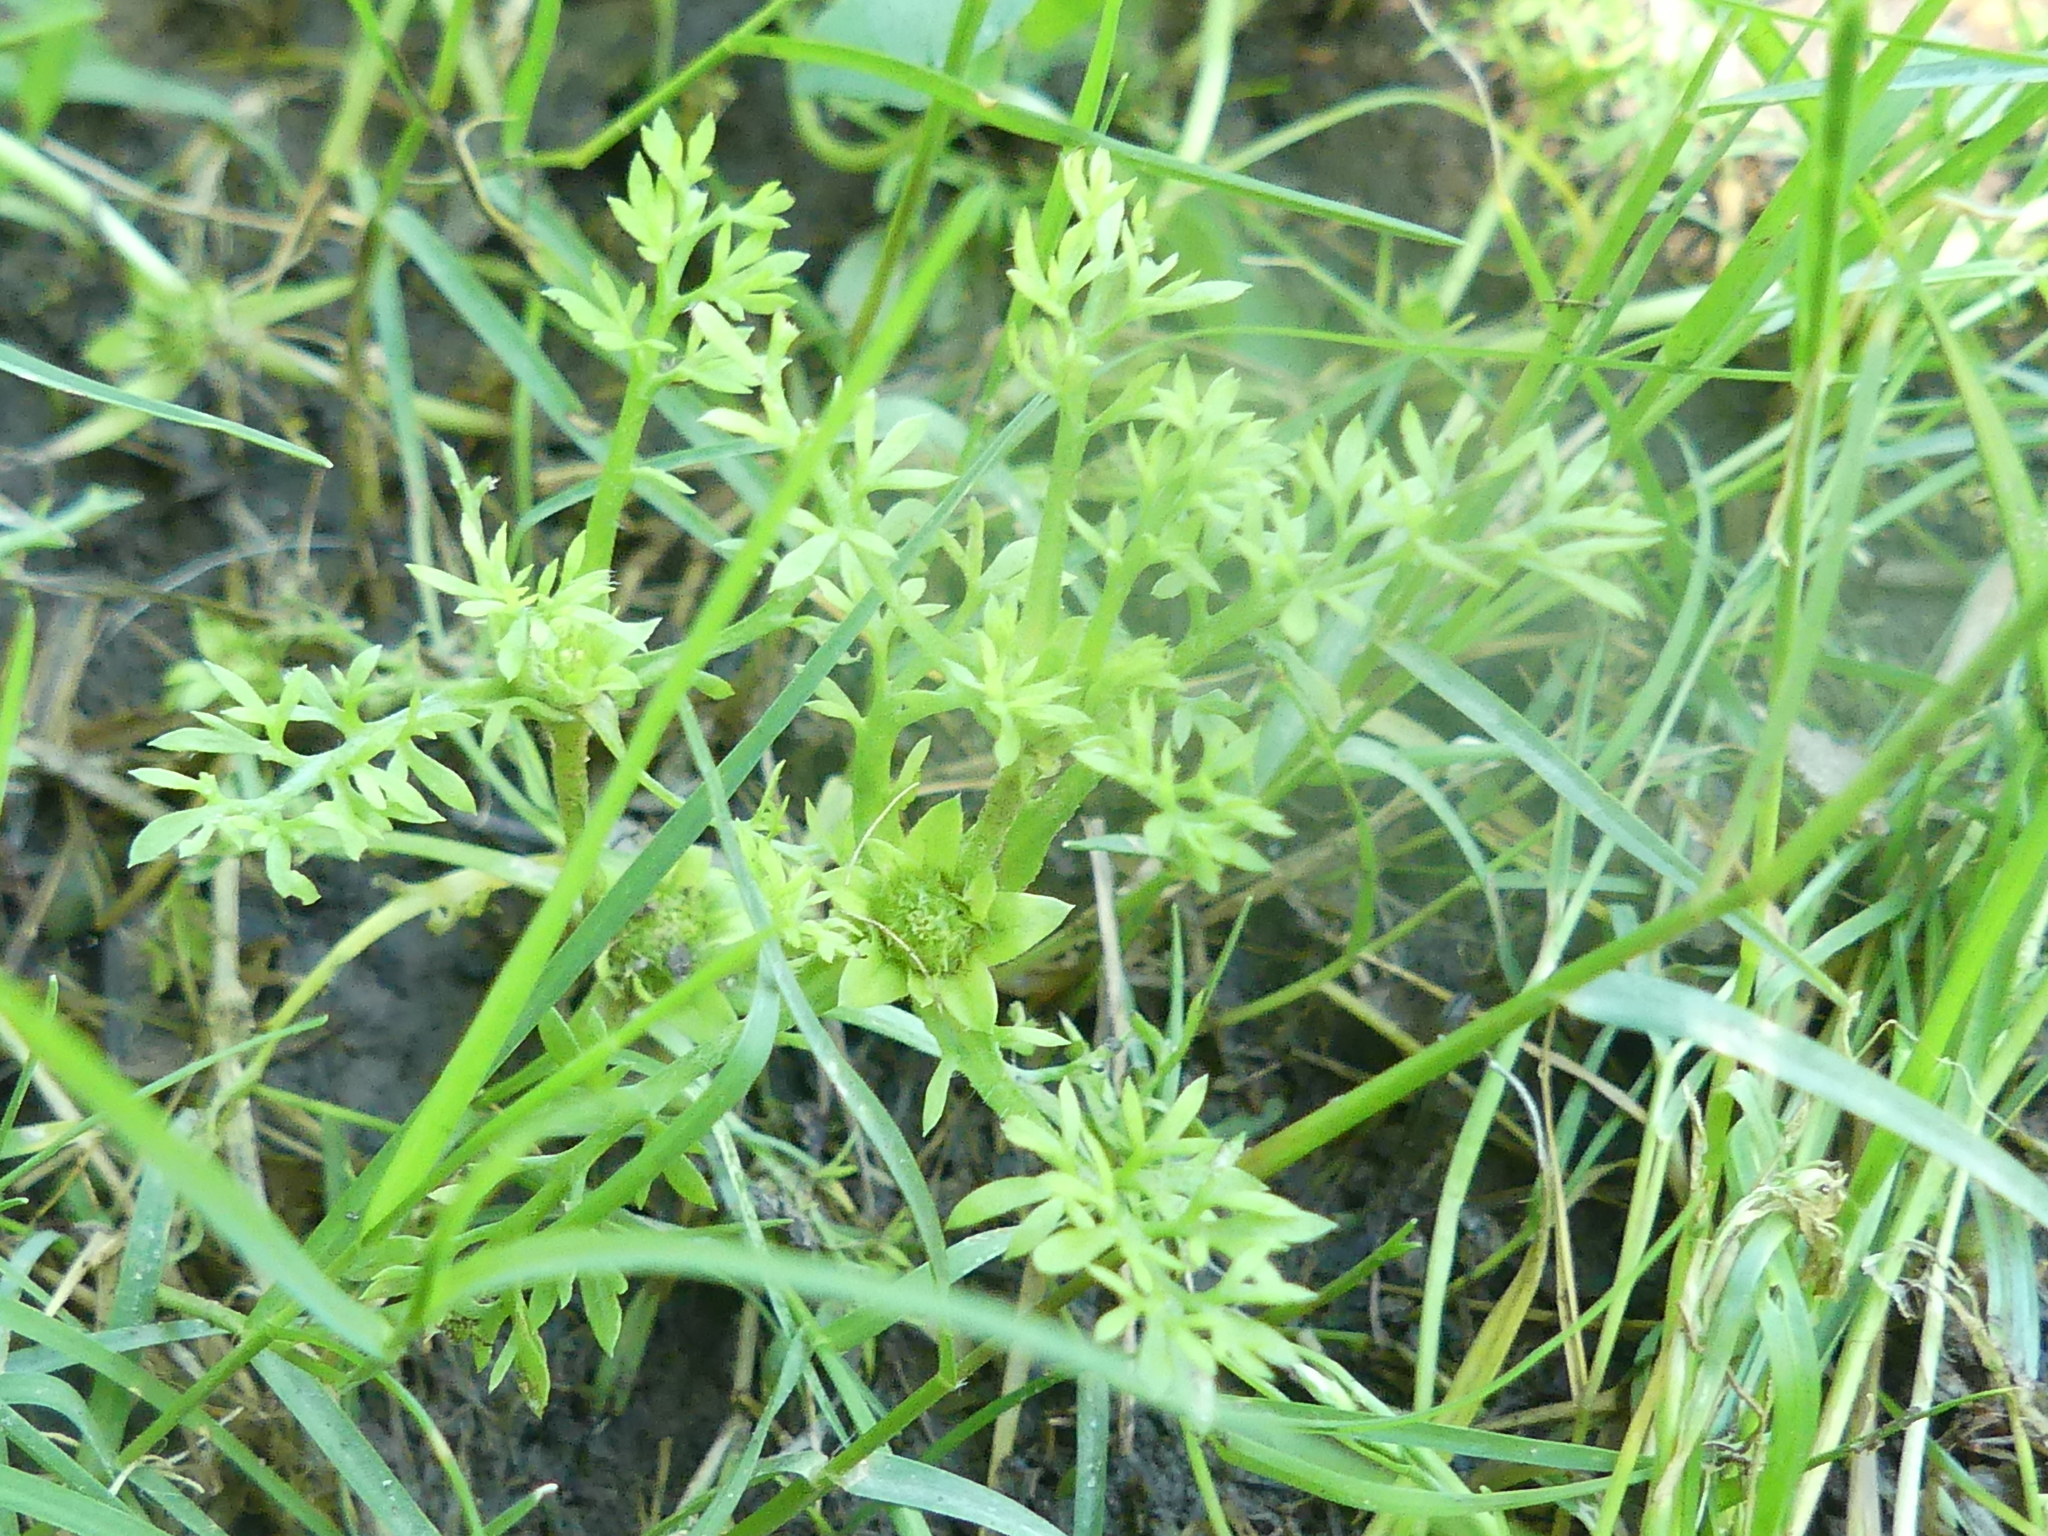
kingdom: Plantae
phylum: Tracheophyta
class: Magnoliopsida
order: Asterales
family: Asteraceae
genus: Soliva
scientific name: Soliva sessilis
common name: Field burrweed
